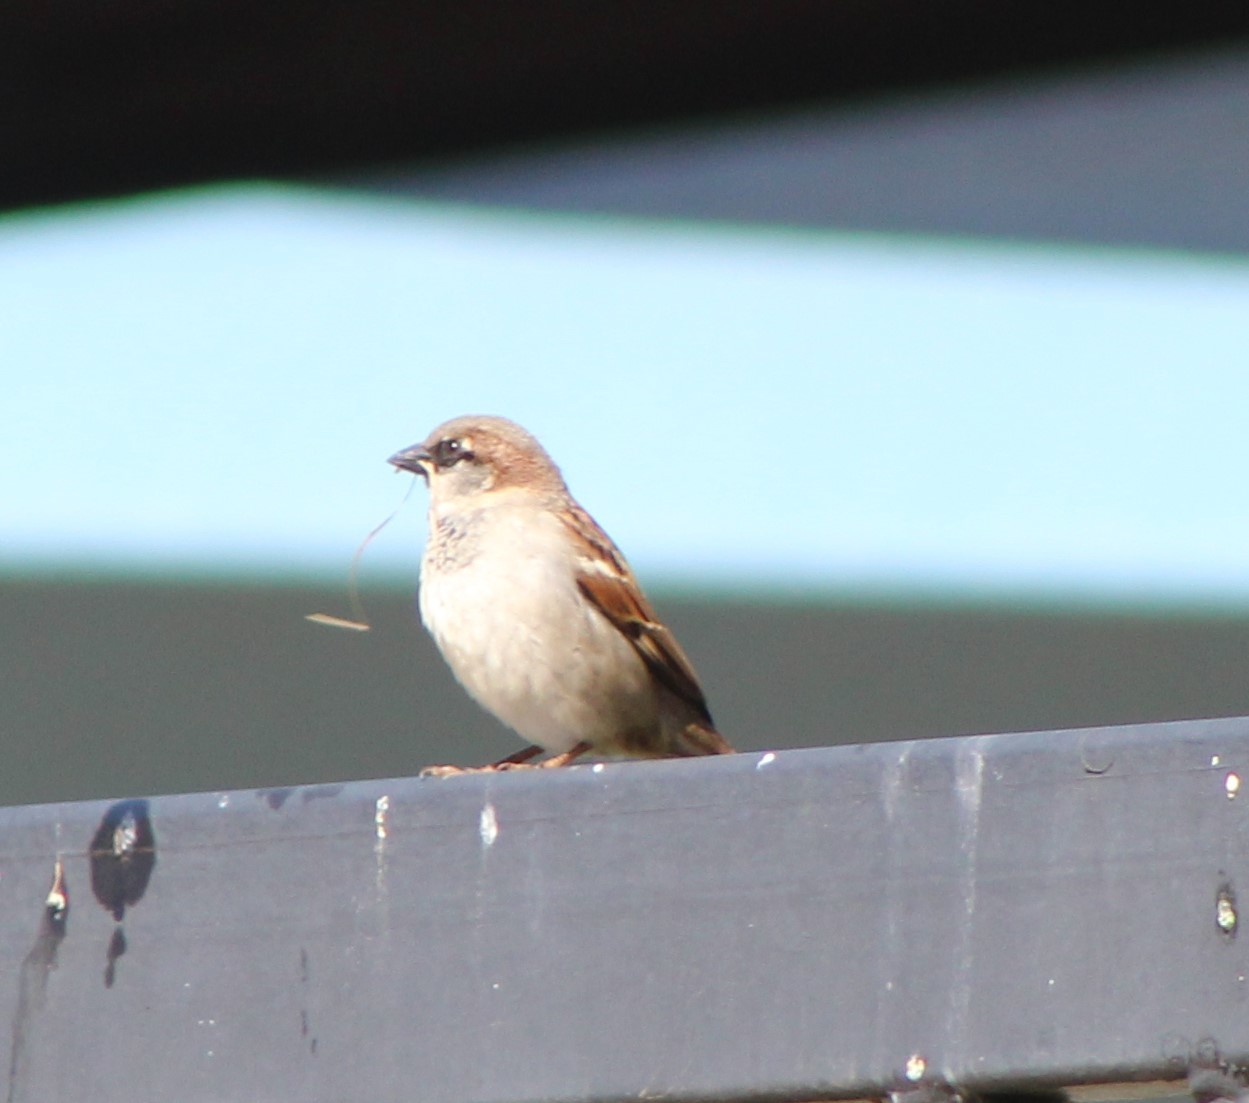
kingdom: Animalia
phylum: Chordata
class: Aves
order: Passeriformes
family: Passeridae
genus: Passer
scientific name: Passer domesticus
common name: House sparrow
